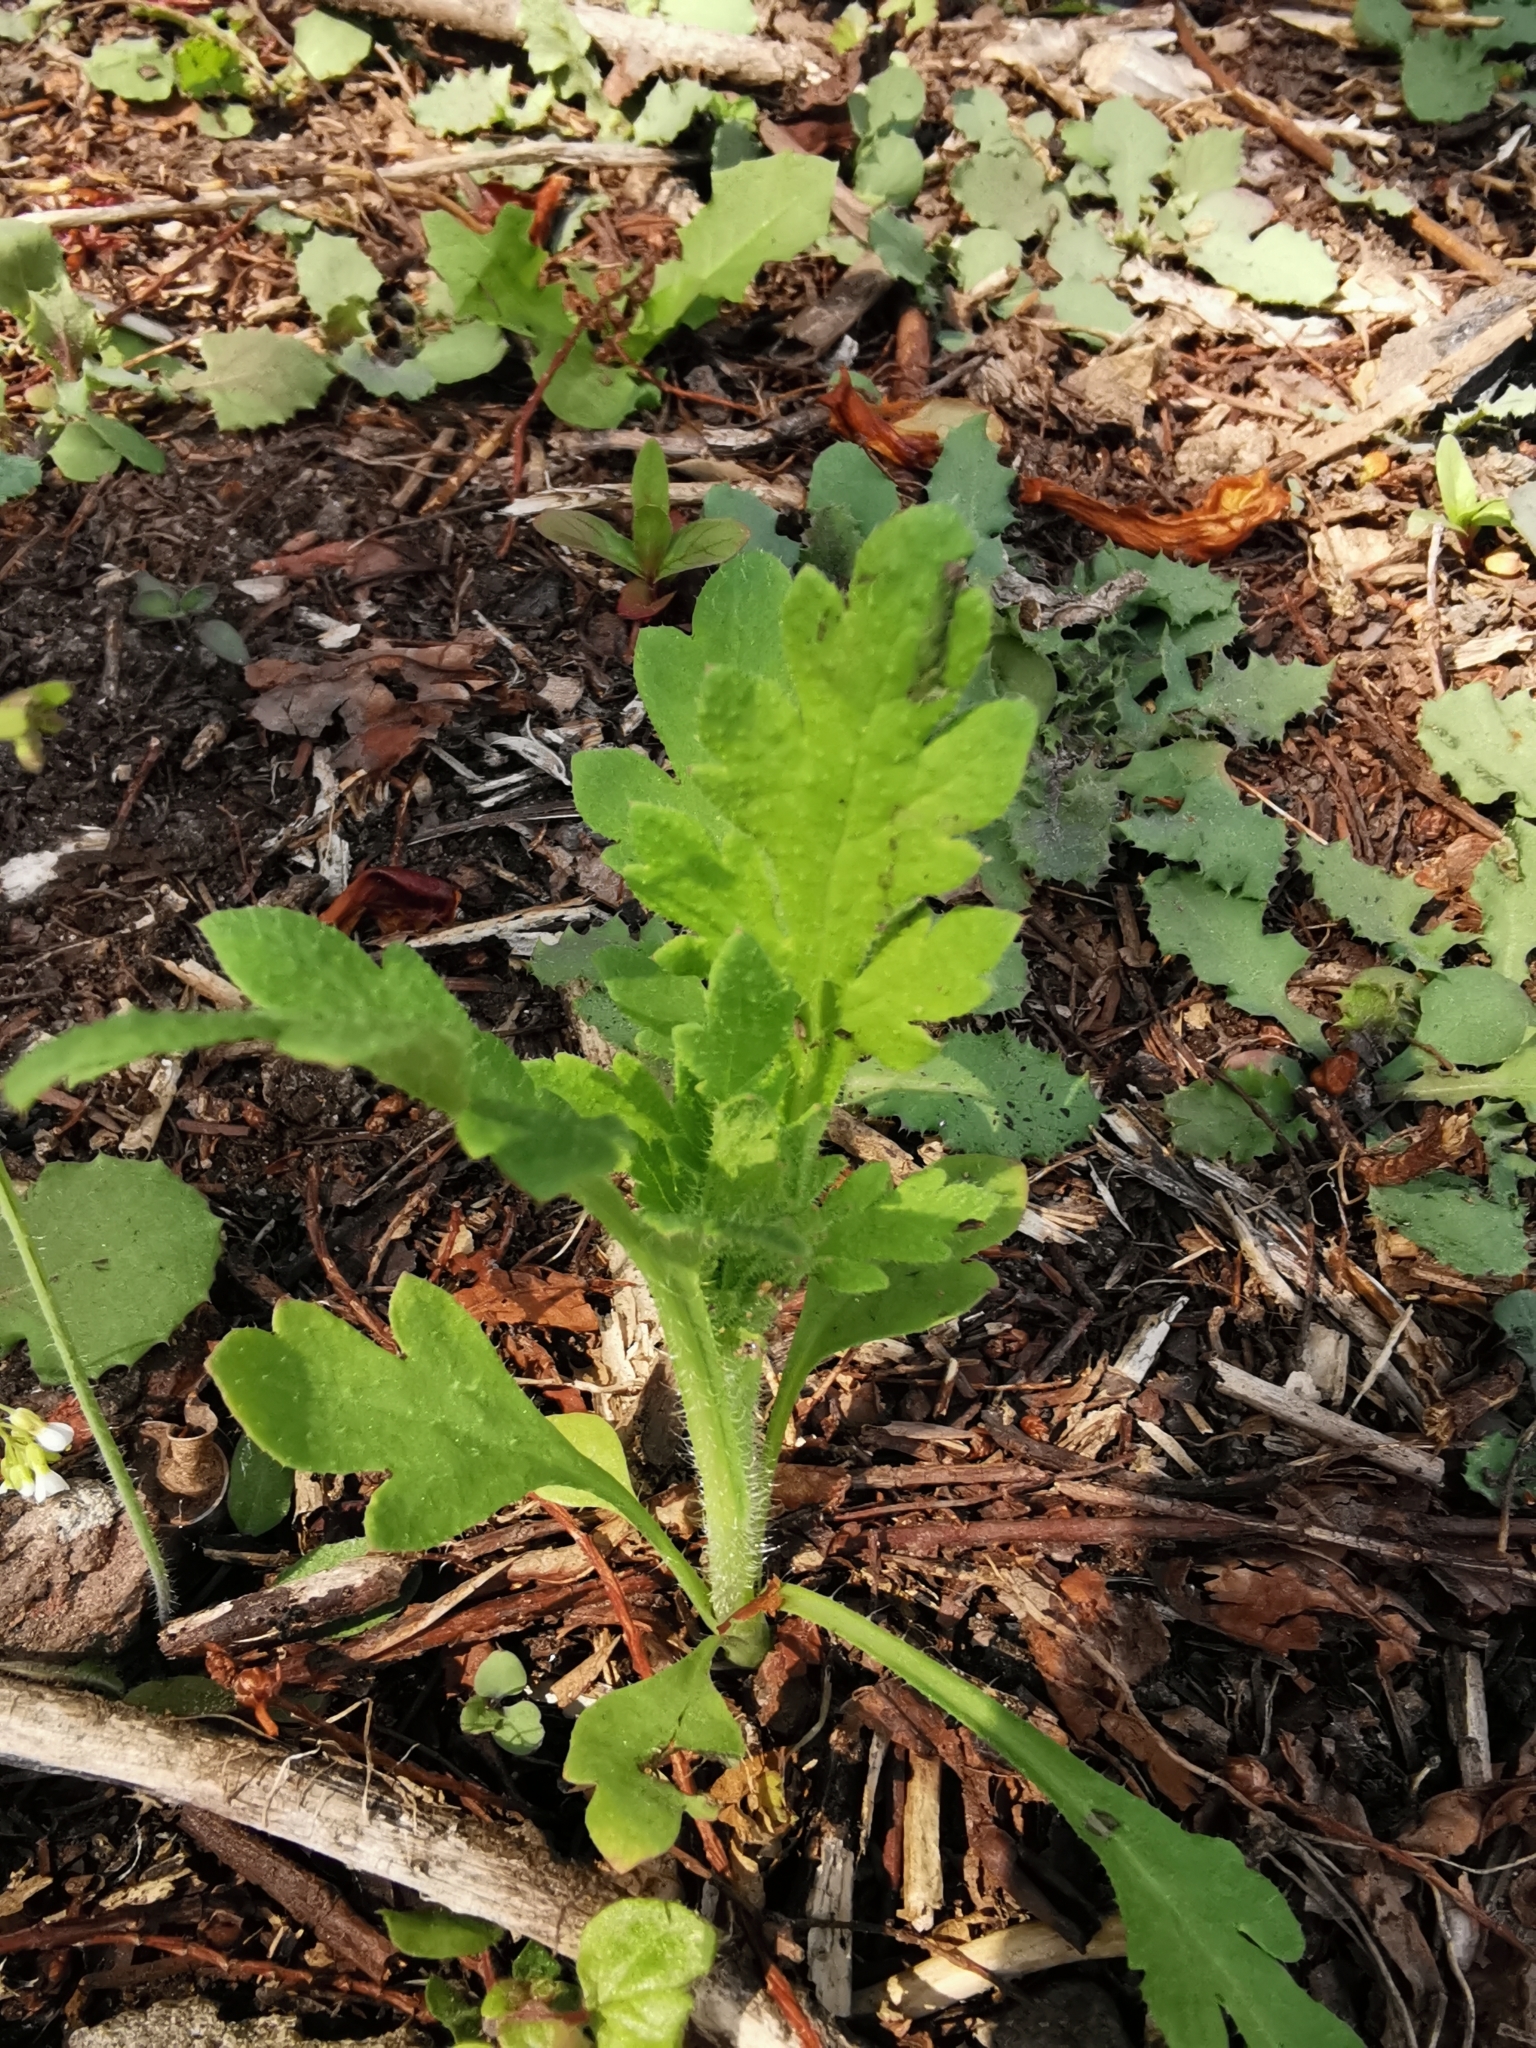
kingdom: Plantae
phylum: Tracheophyta
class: Magnoliopsida
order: Ranunculales
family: Papaveraceae
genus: Papaver
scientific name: Papaver cambricum
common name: Poppy
